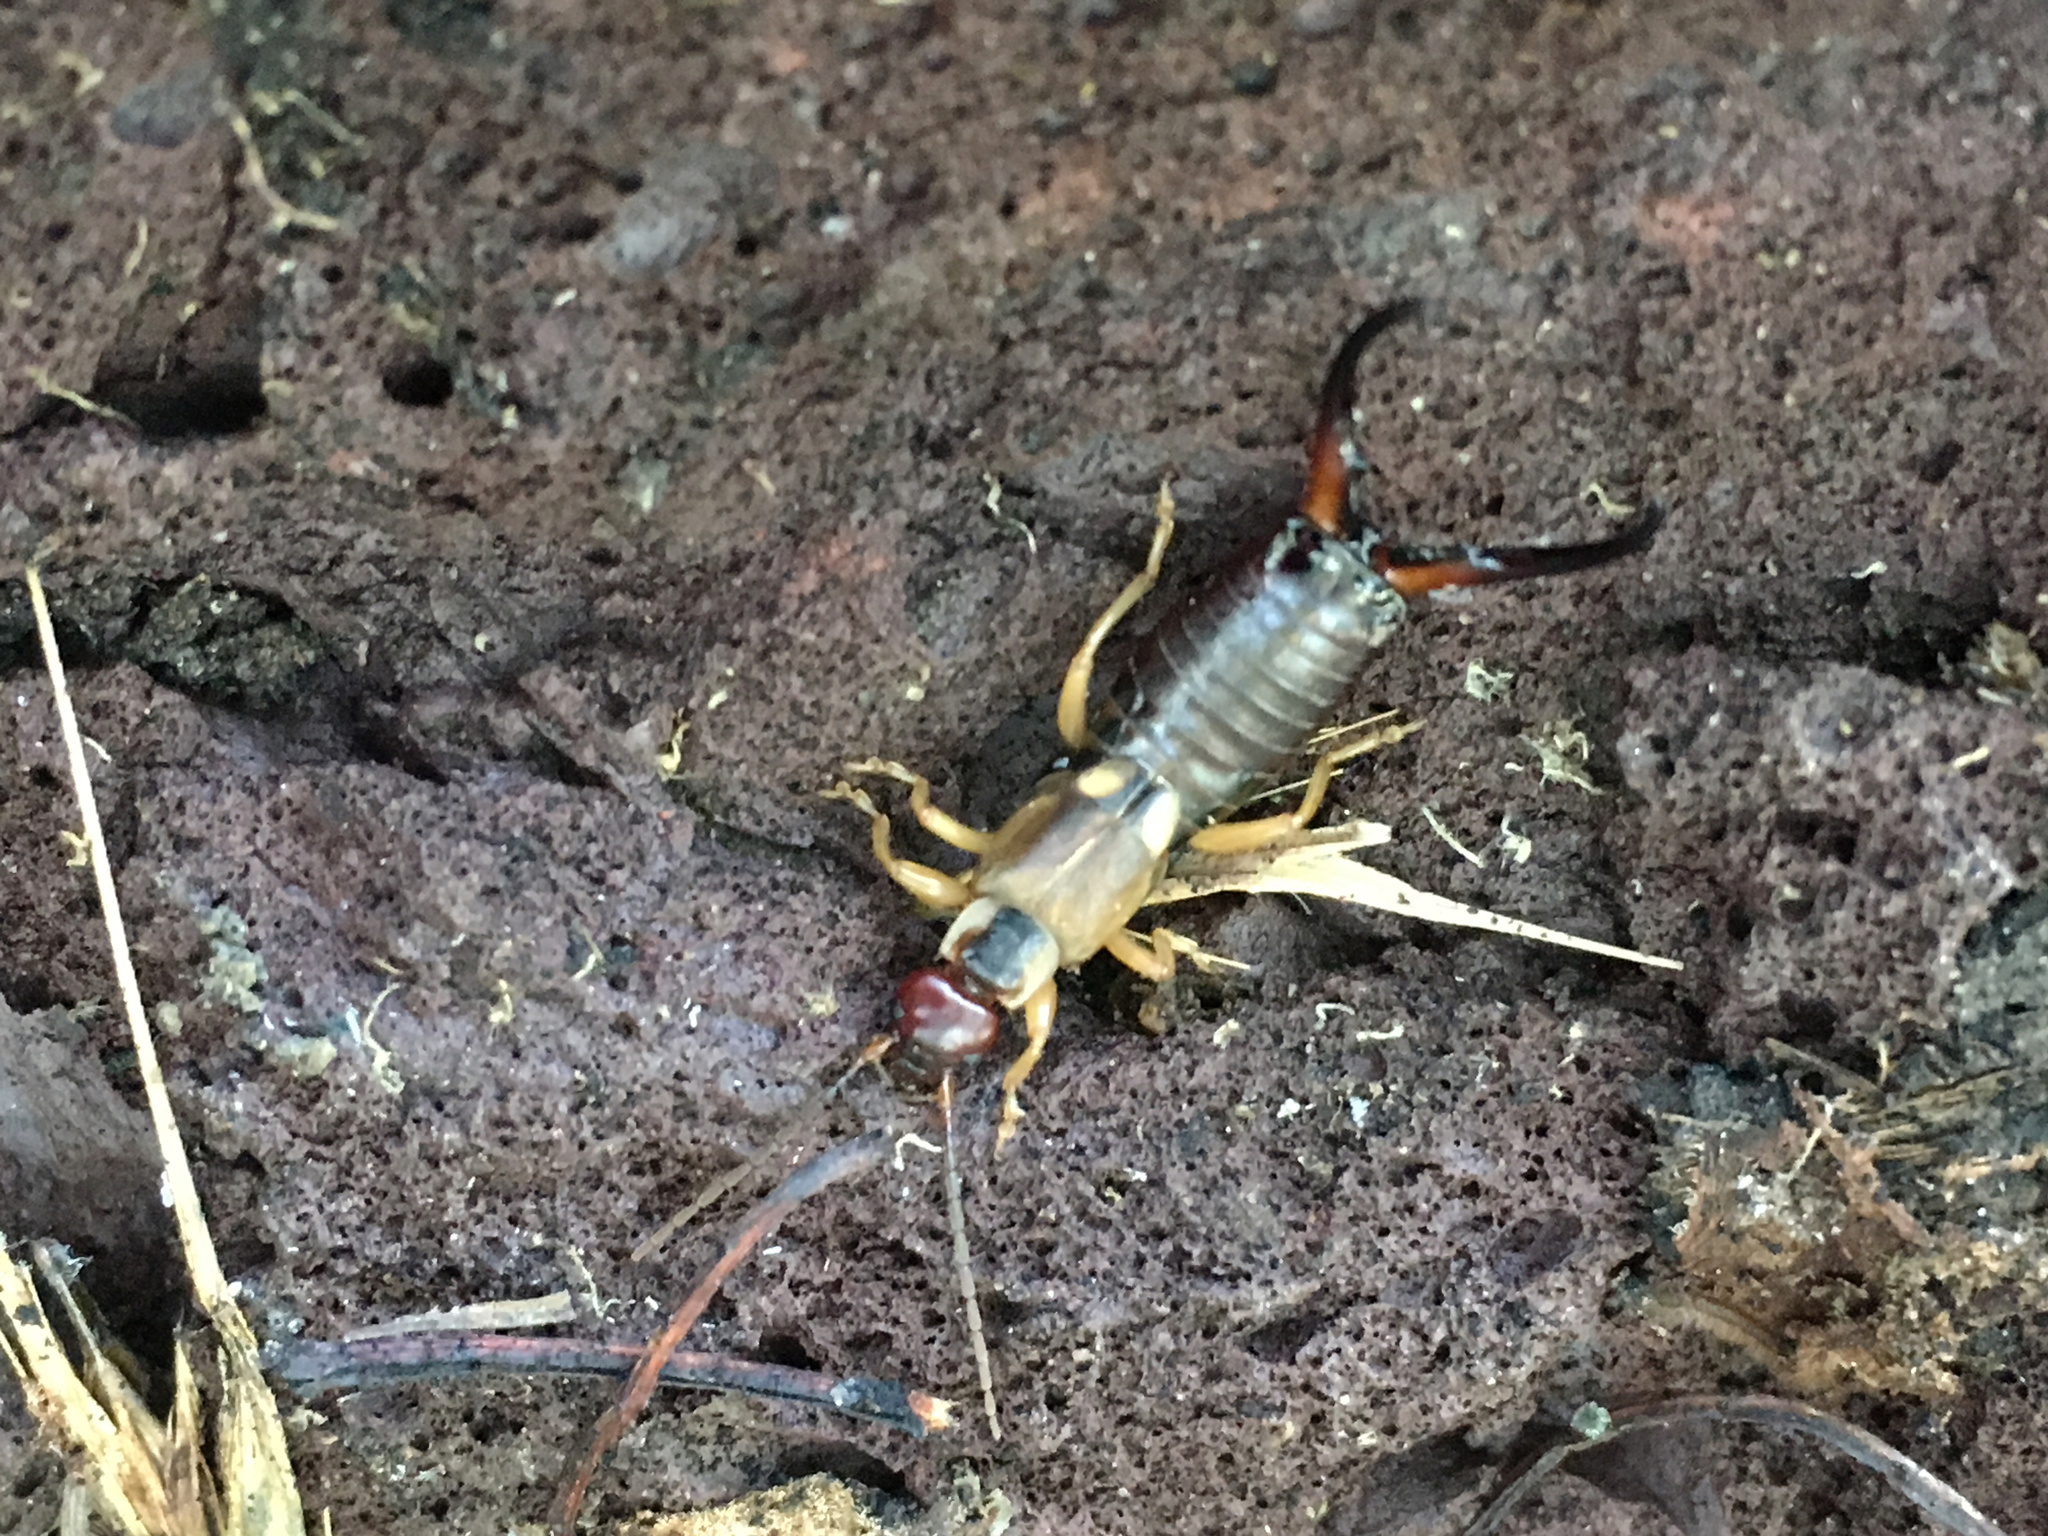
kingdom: Animalia
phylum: Arthropoda
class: Insecta
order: Dermaptera
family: Forficulidae
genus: Forficula
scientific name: Forficula
